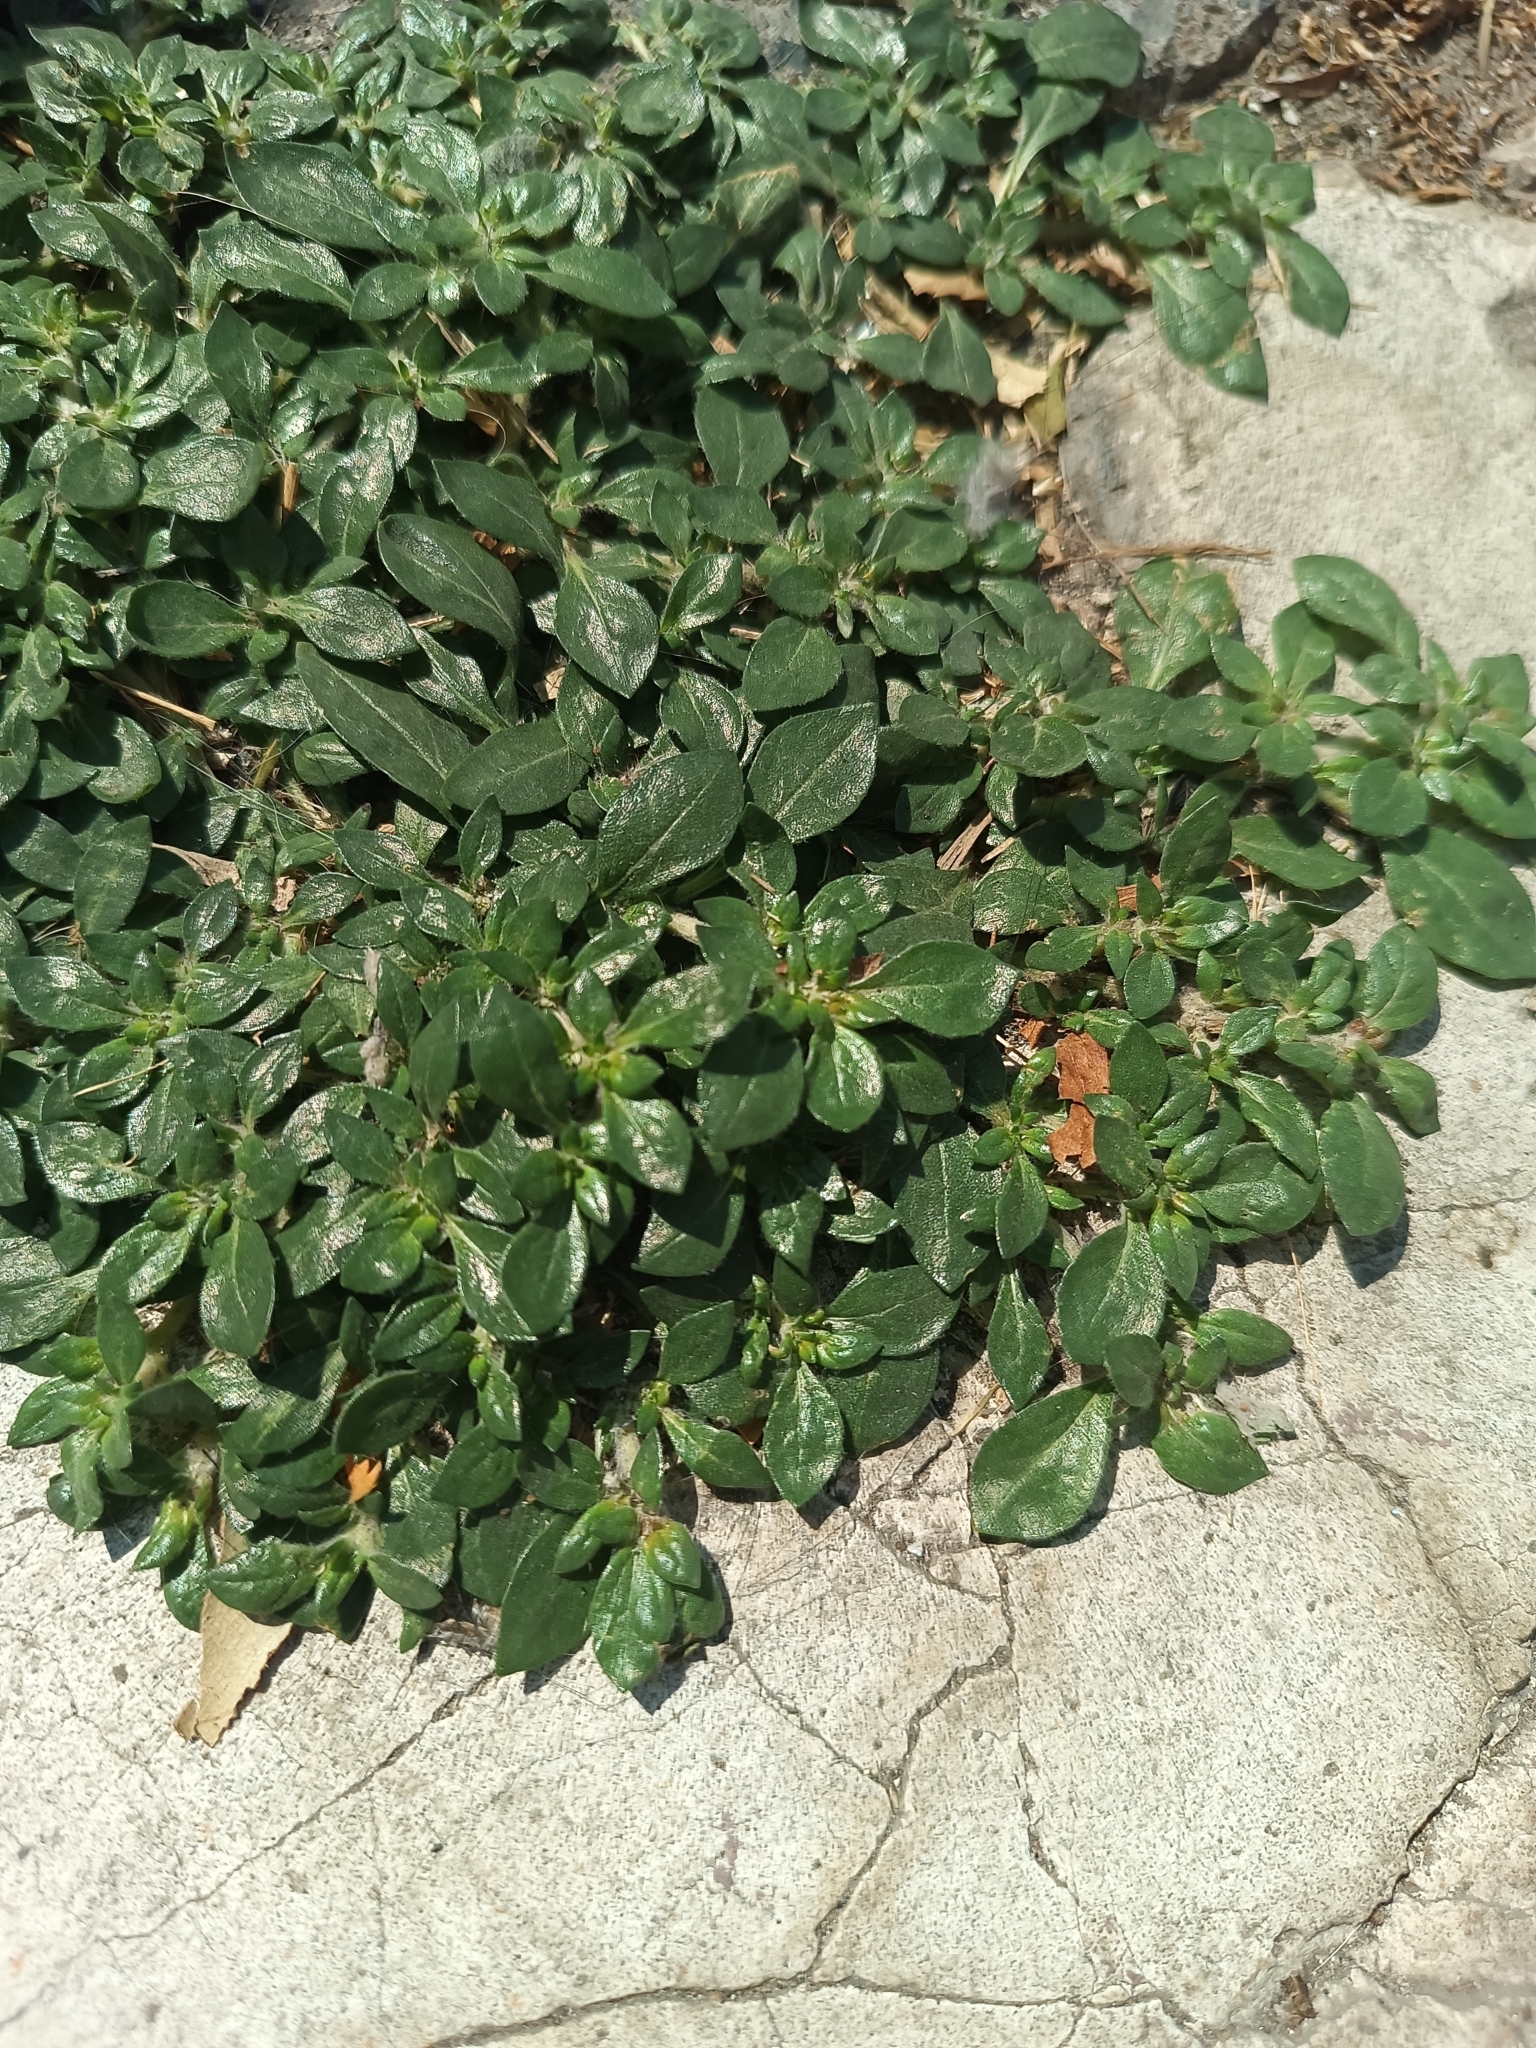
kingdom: Plantae
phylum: Tracheophyta
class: Magnoliopsida
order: Caryophyllales
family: Amaranthaceae
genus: Alternanthera
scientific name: Alternanthera caracasana
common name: Washerwoman
